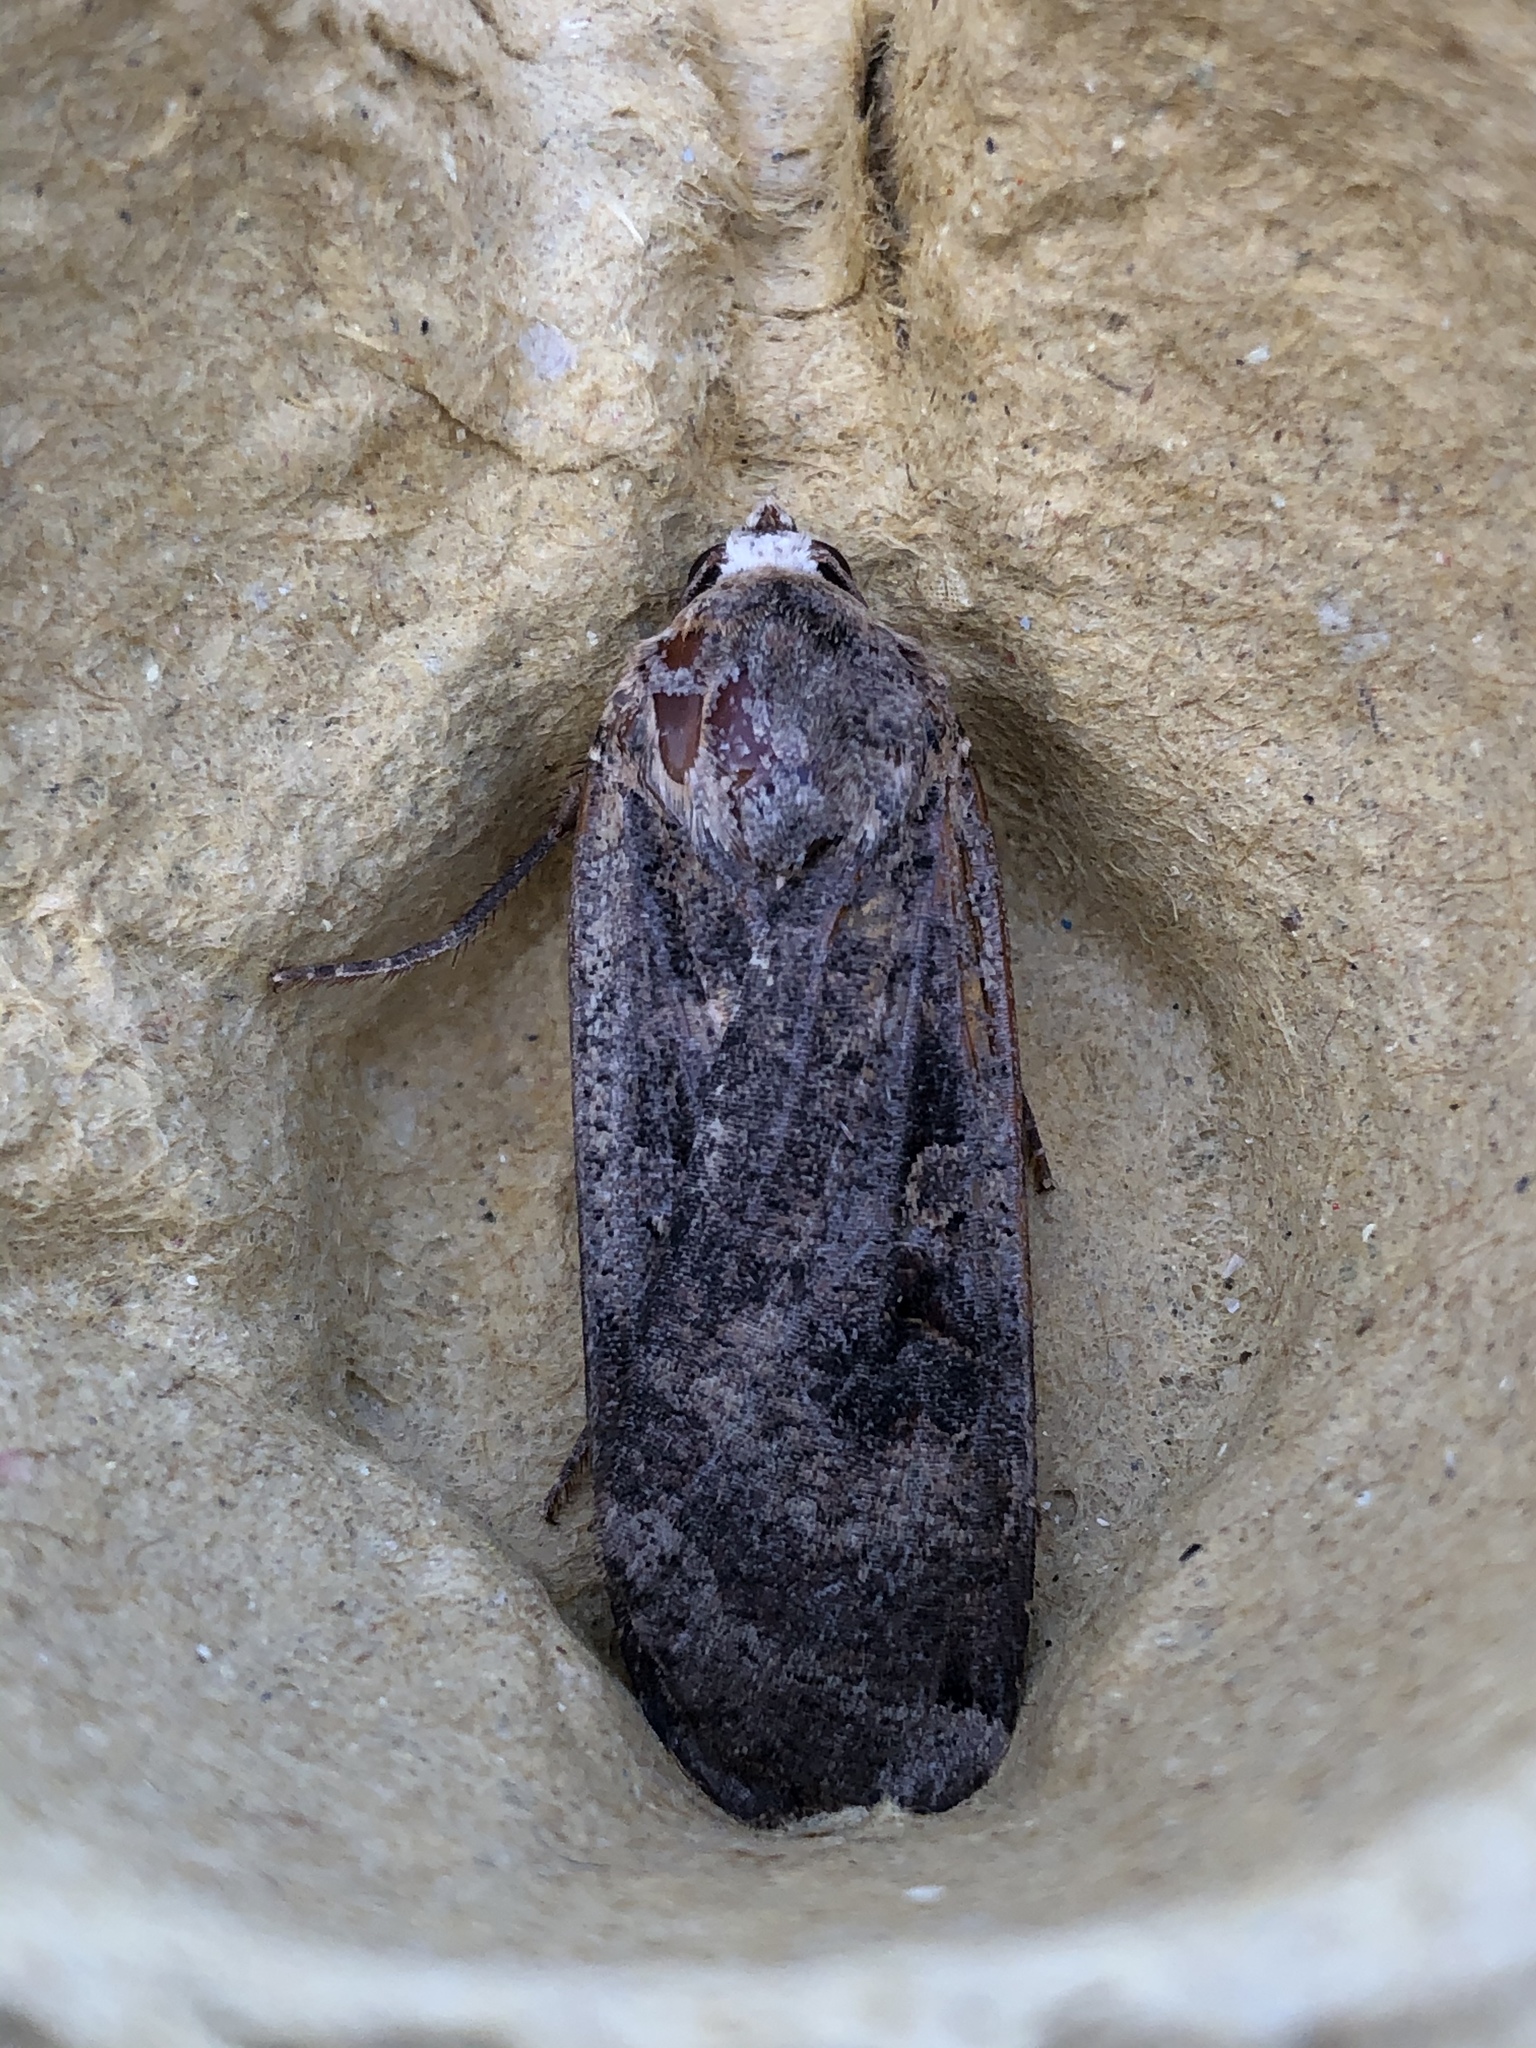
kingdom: Animalia
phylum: Arthropoda
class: Insecta
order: Lepidoptera
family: Noctuidae
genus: Noctua
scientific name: Noctua pronuba
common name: Large yellow underwing
